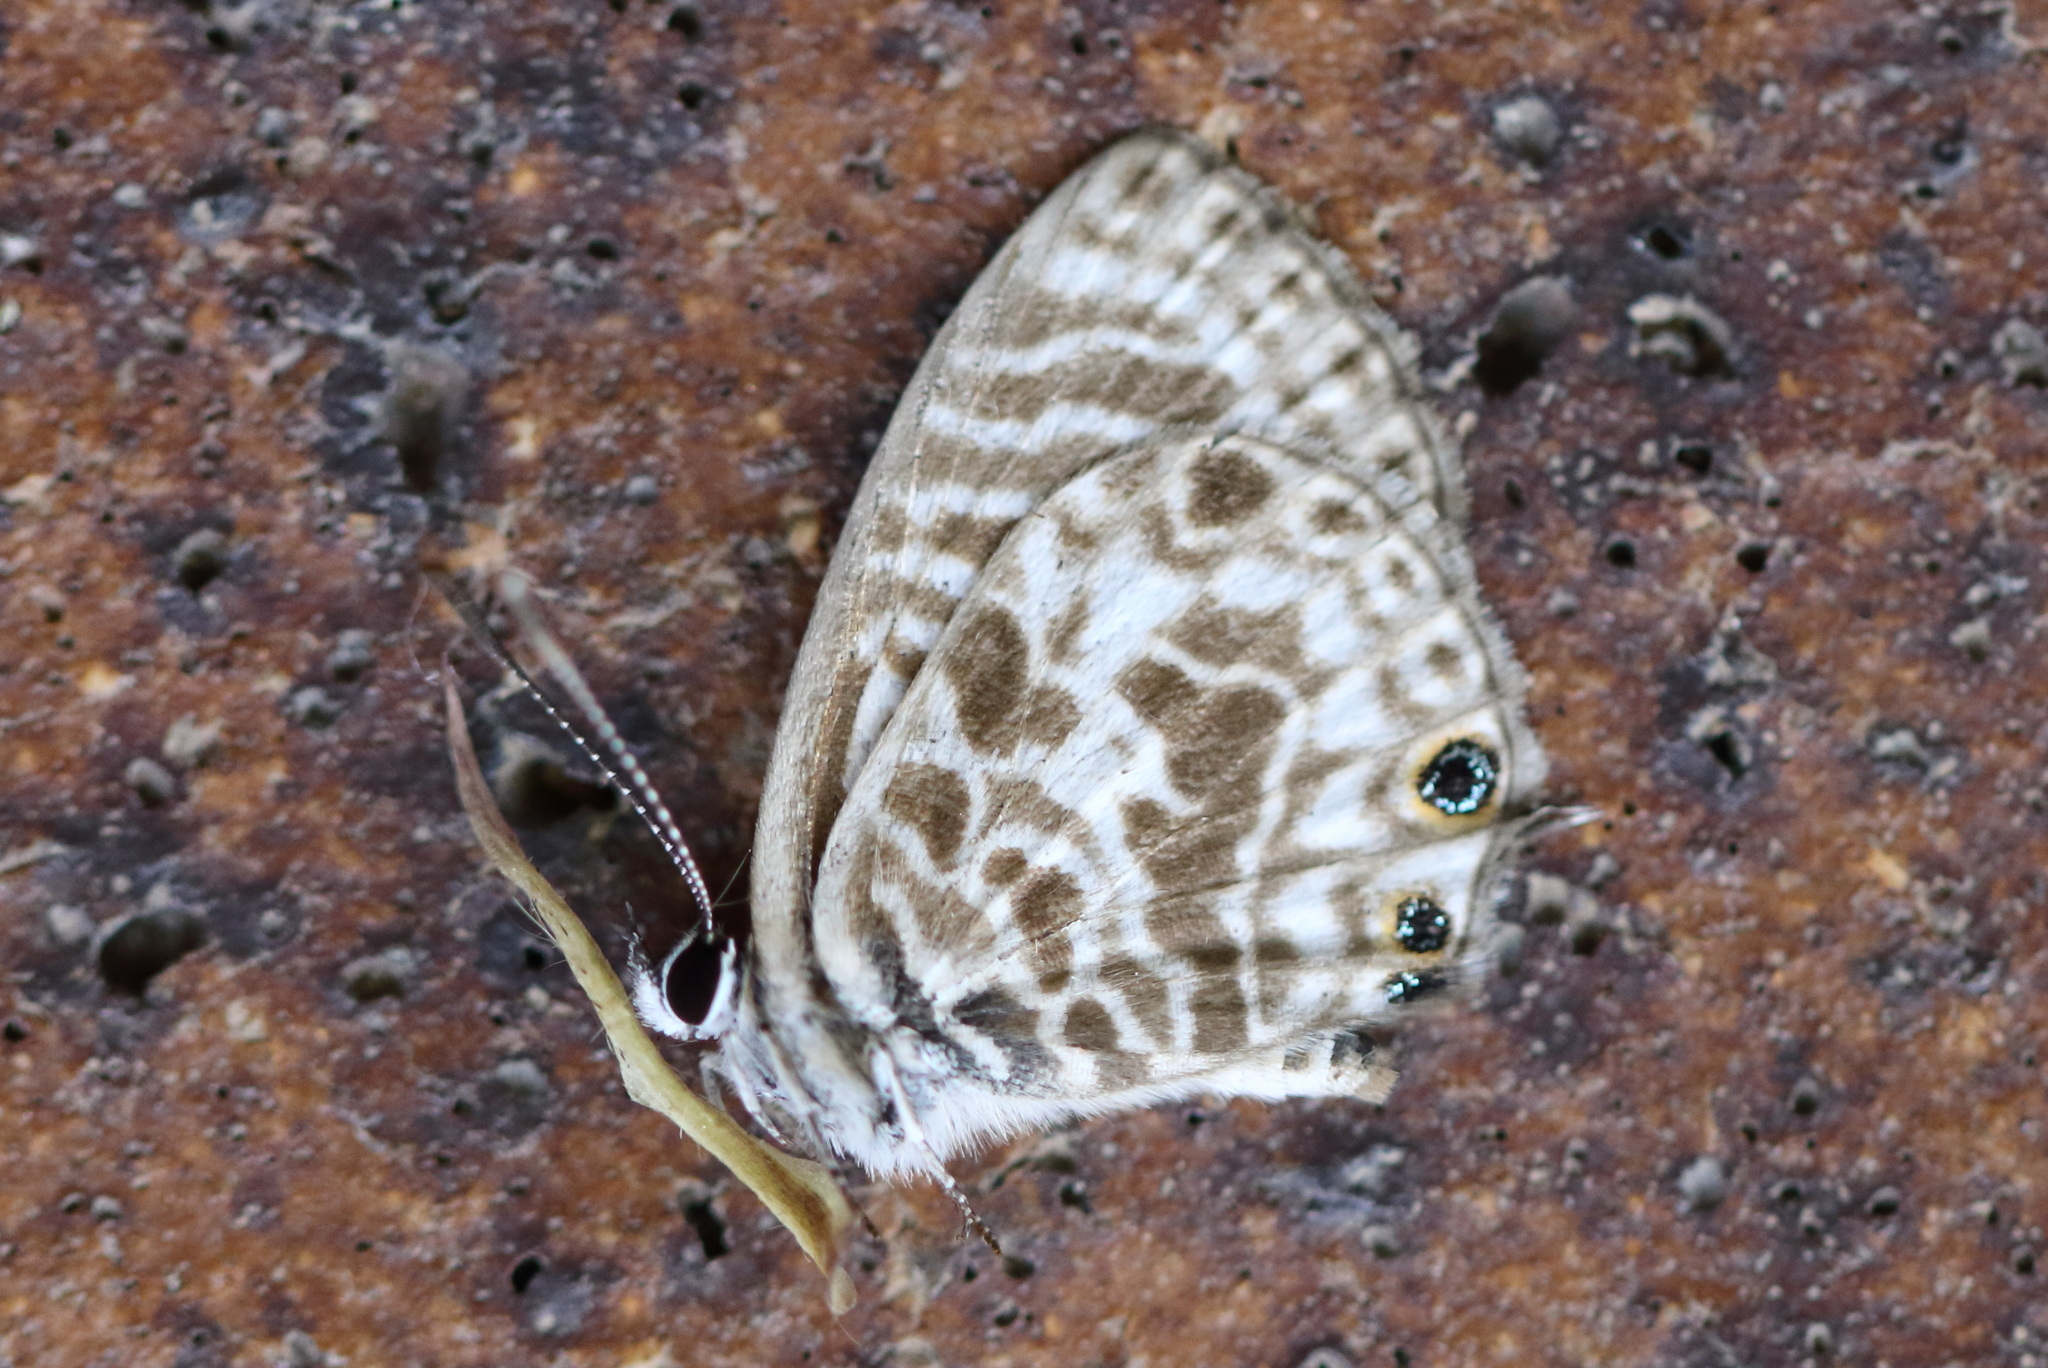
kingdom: Animalia
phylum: Arthropoda
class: Insecta
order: Lepidoptera
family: Lycaenidae
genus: Leptotes
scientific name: Leptotes plinius
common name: Zebra blue
